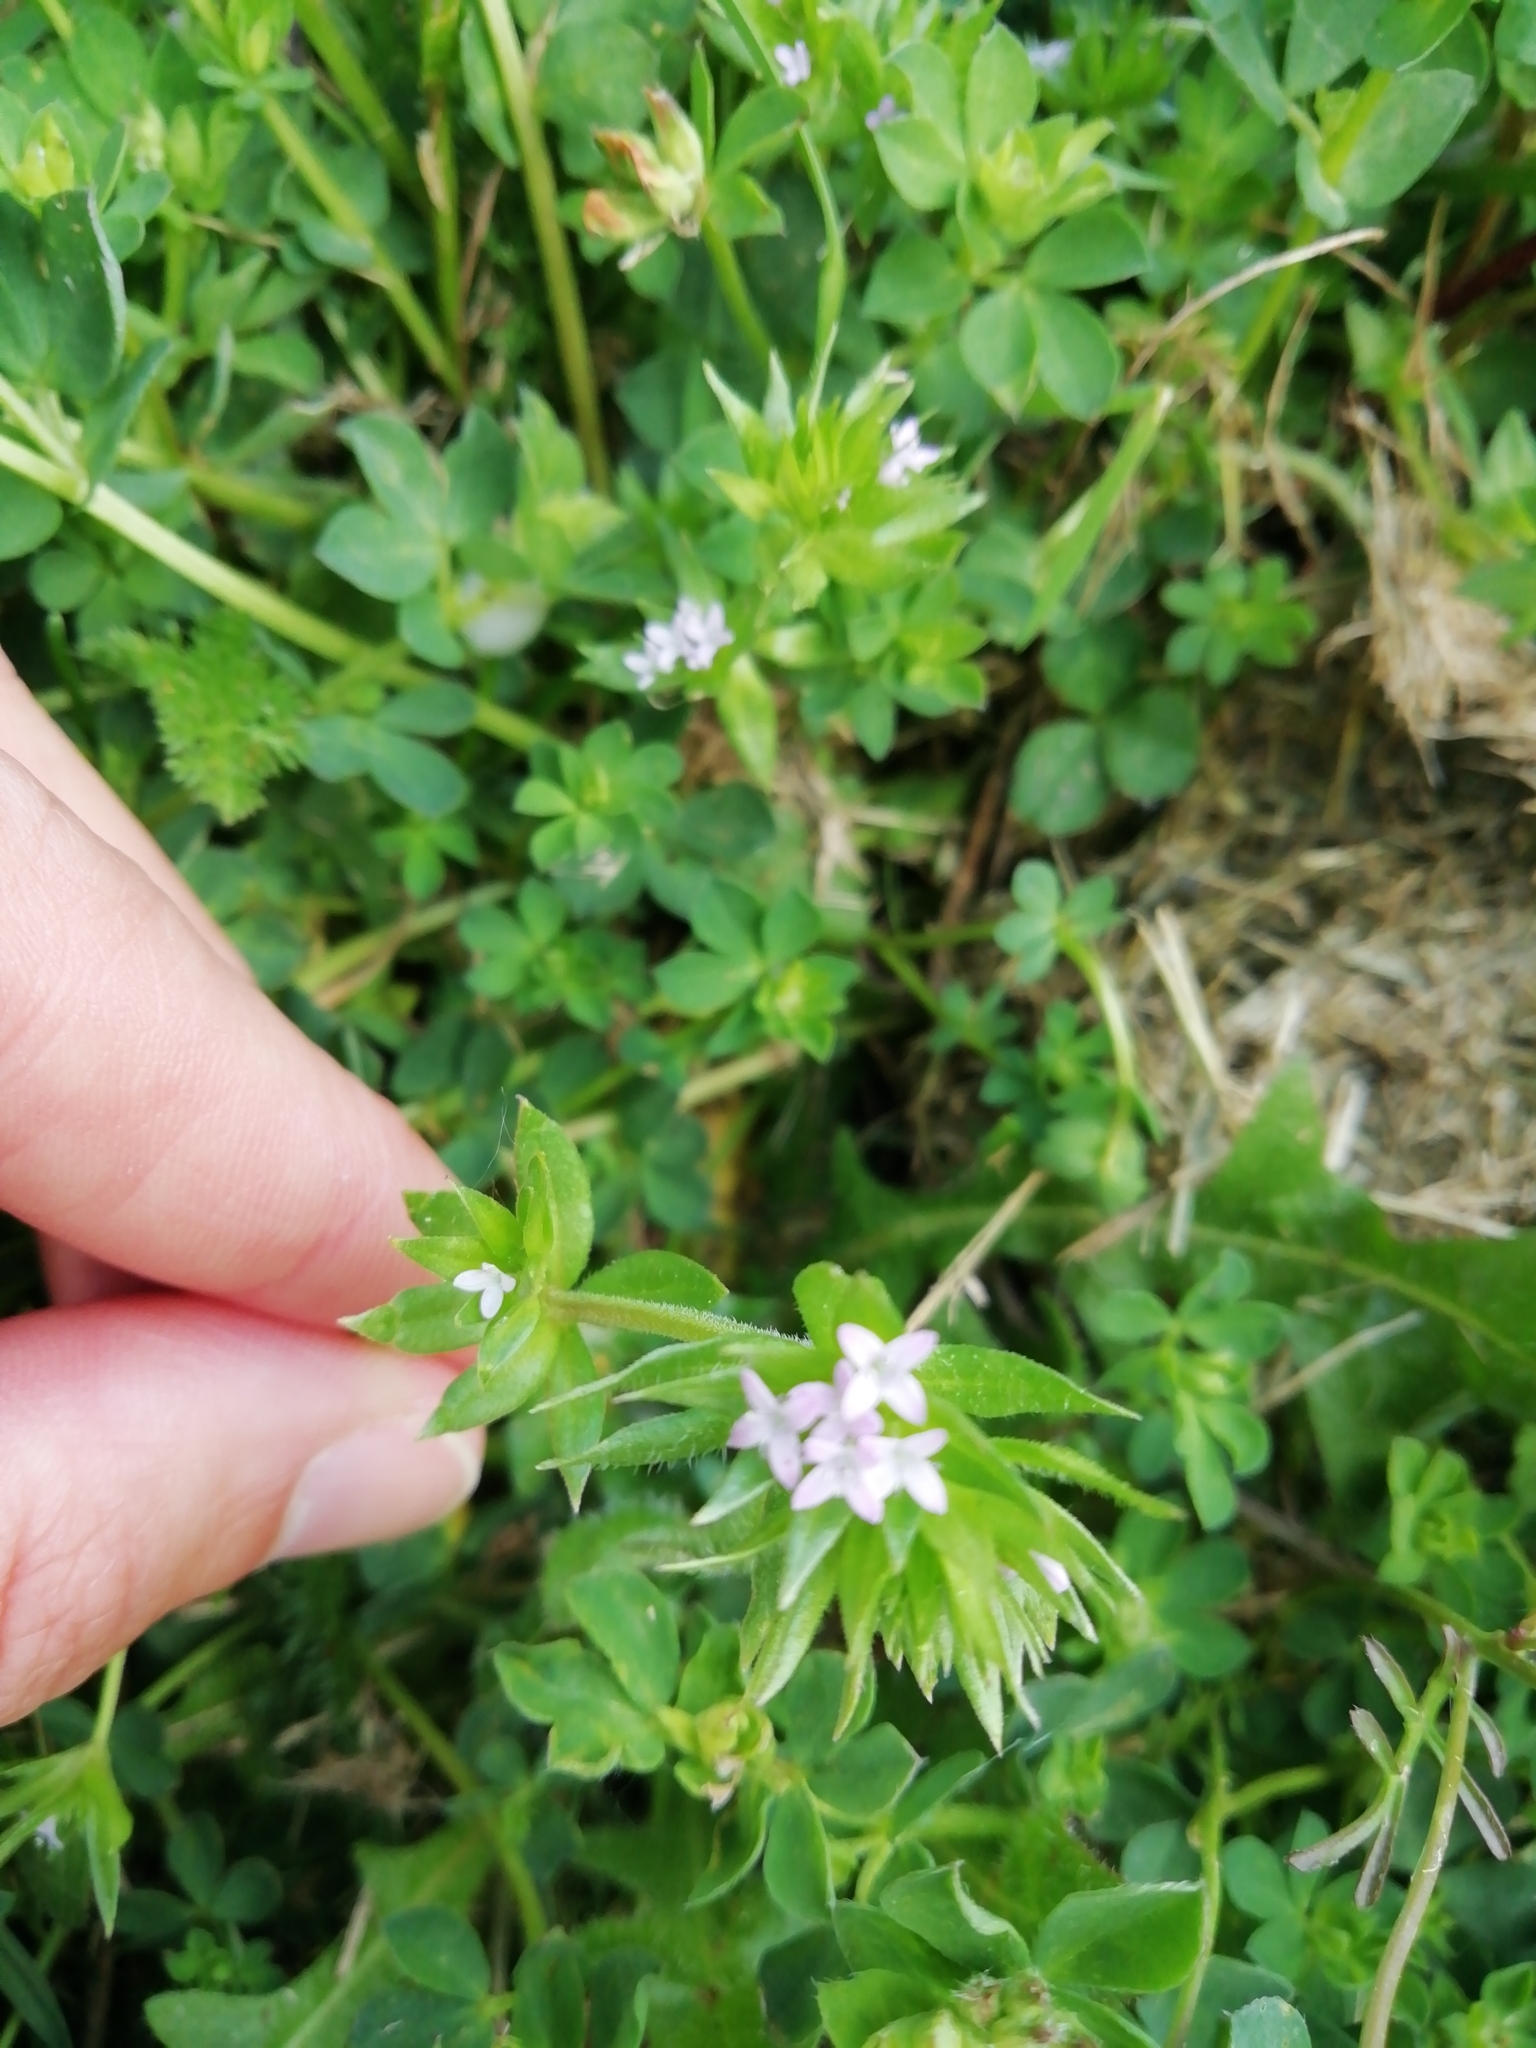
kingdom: Plantae
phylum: Tracheophyta
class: Magnoliopsida
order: Gentianales
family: Rubiaceae
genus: Sherardia
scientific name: Sherardia arvensis
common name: Field madder
